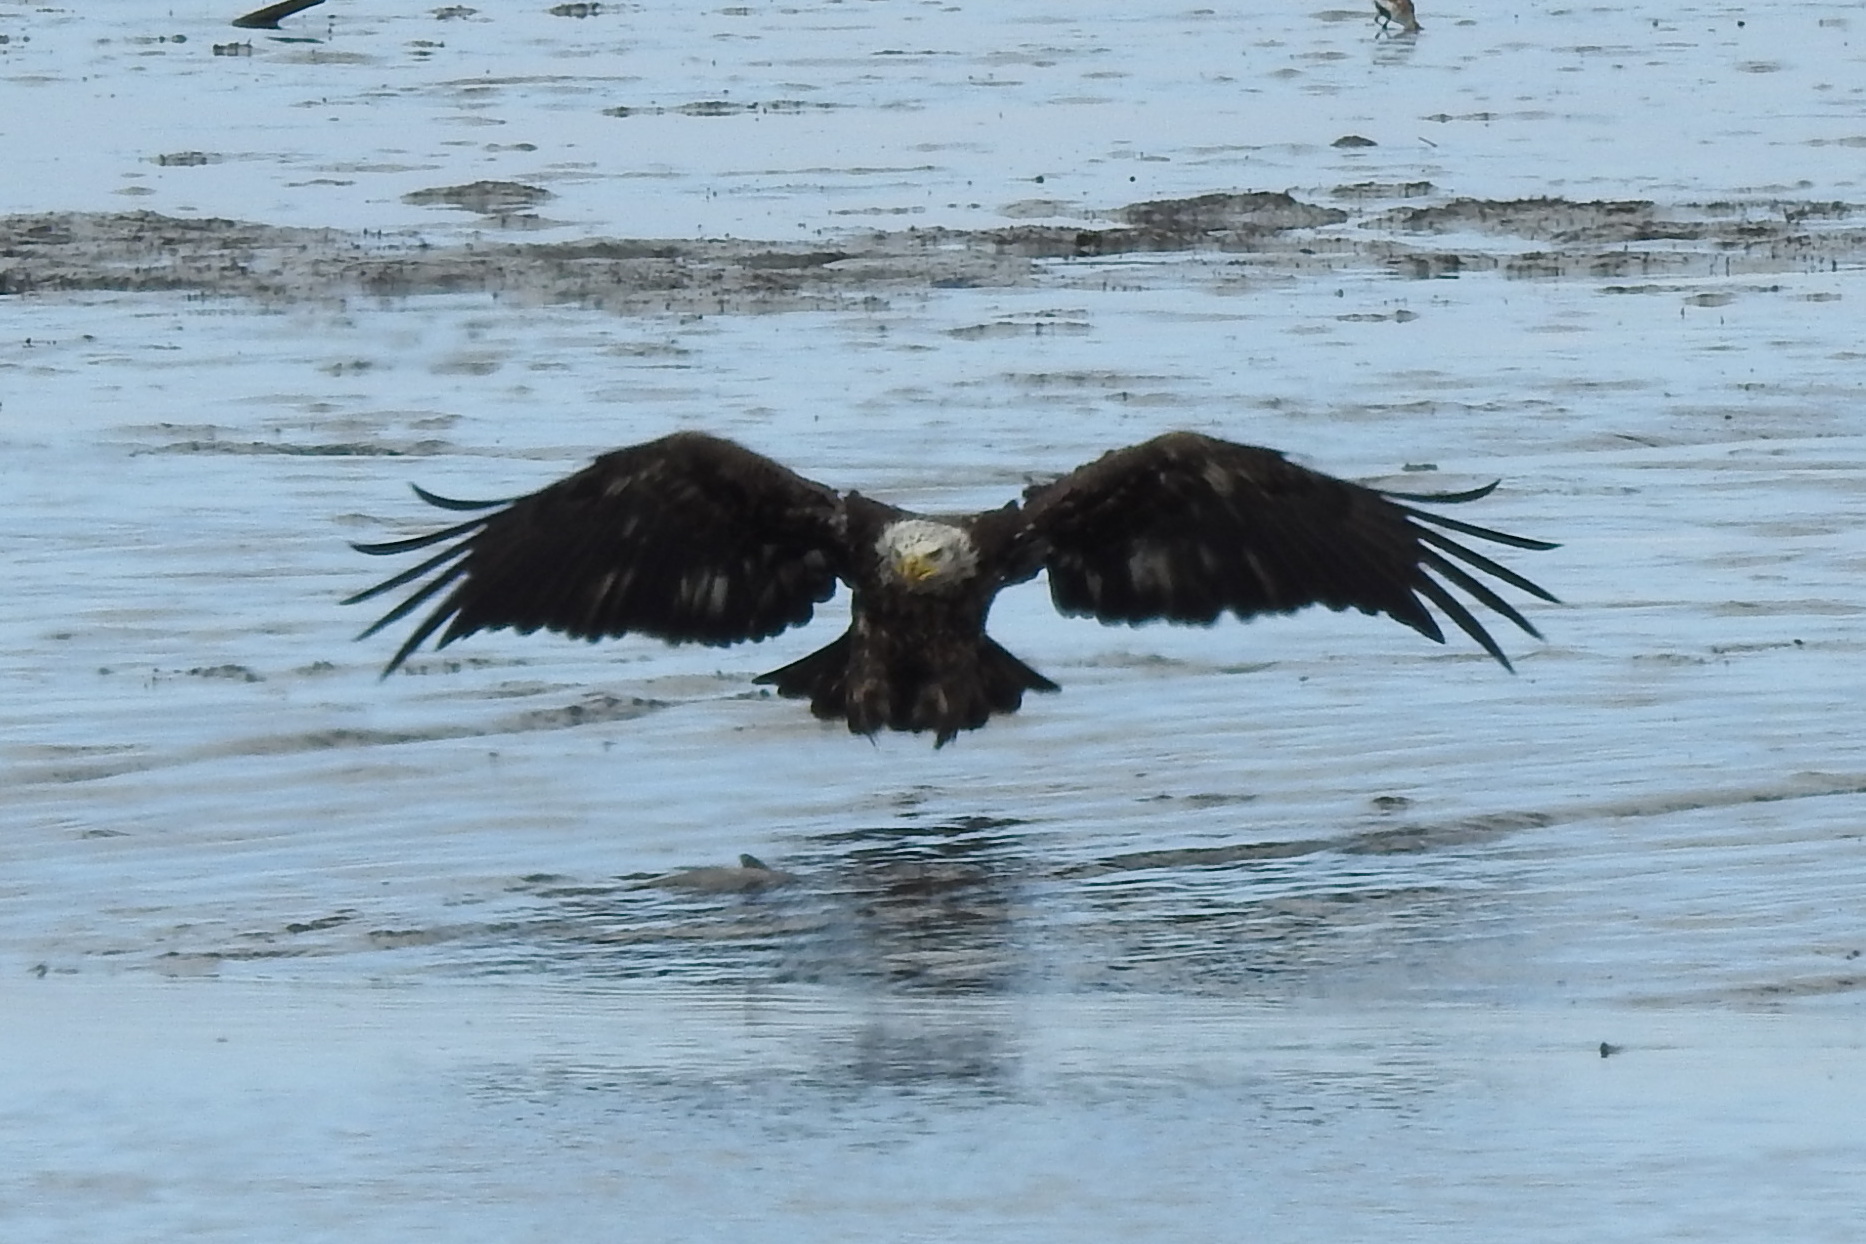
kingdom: Animalia
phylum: Chordata
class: Aves
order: Accipitriformes
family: Accipitridae
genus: Haliaeetus
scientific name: Haliaeetus leucocephalus
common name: Bald eagle
